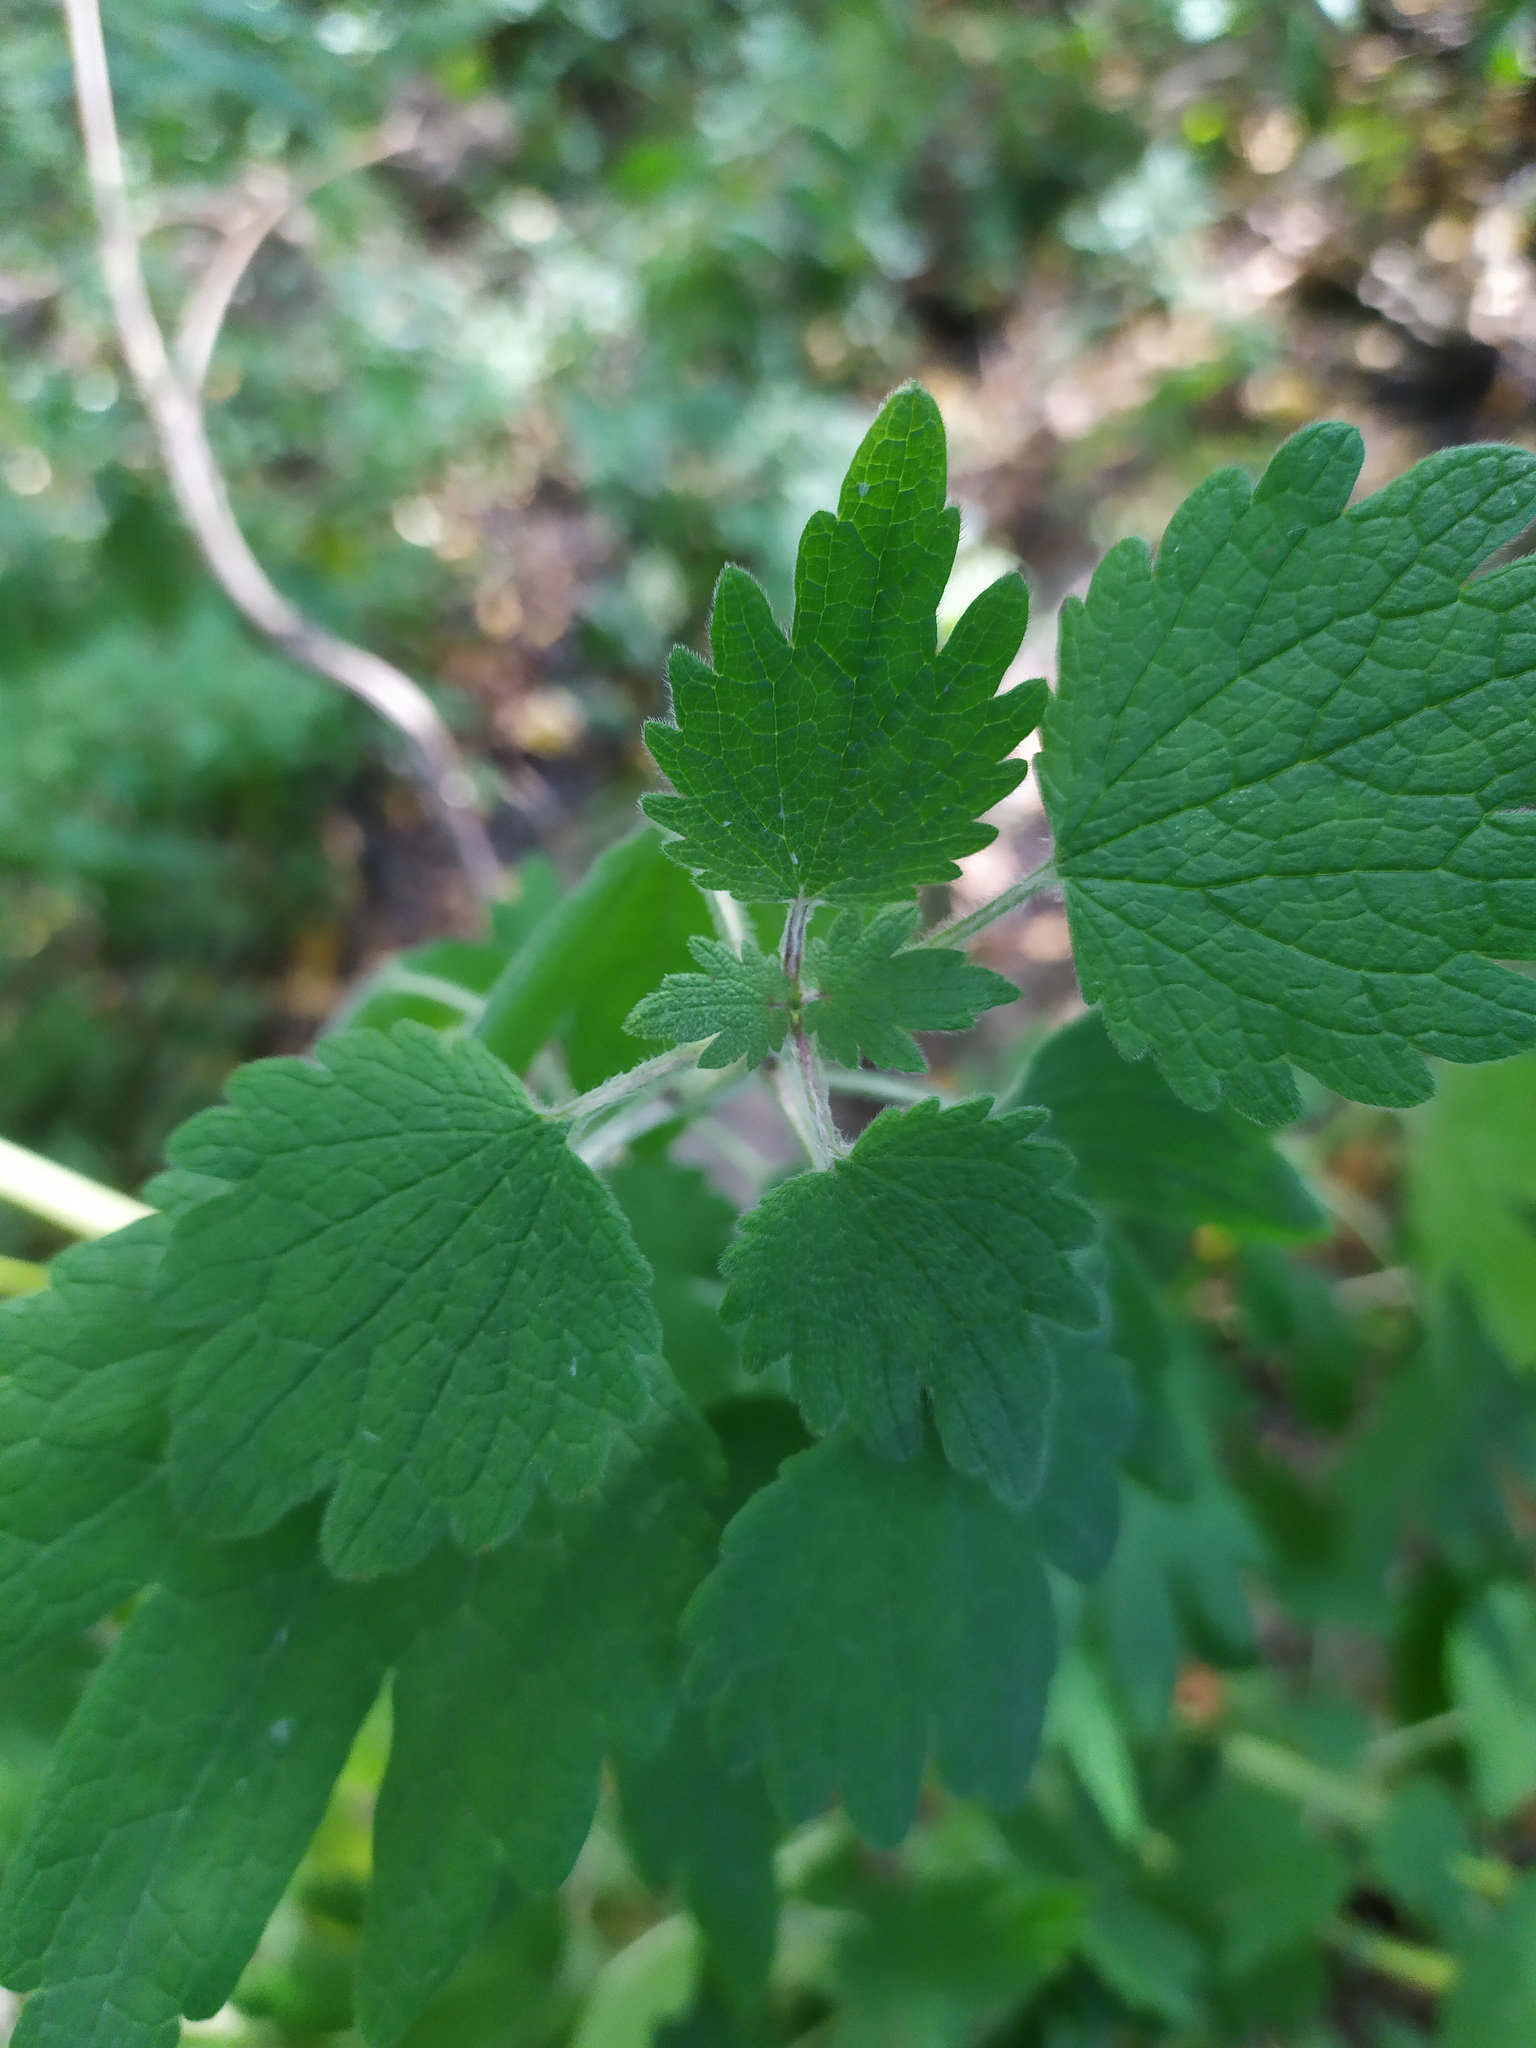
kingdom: Plantae
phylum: Tracheophyta
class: Magnoliopsida
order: Lamiales
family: Lamiaceae
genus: Leonurus
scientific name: Leonurus quinquelobatus
